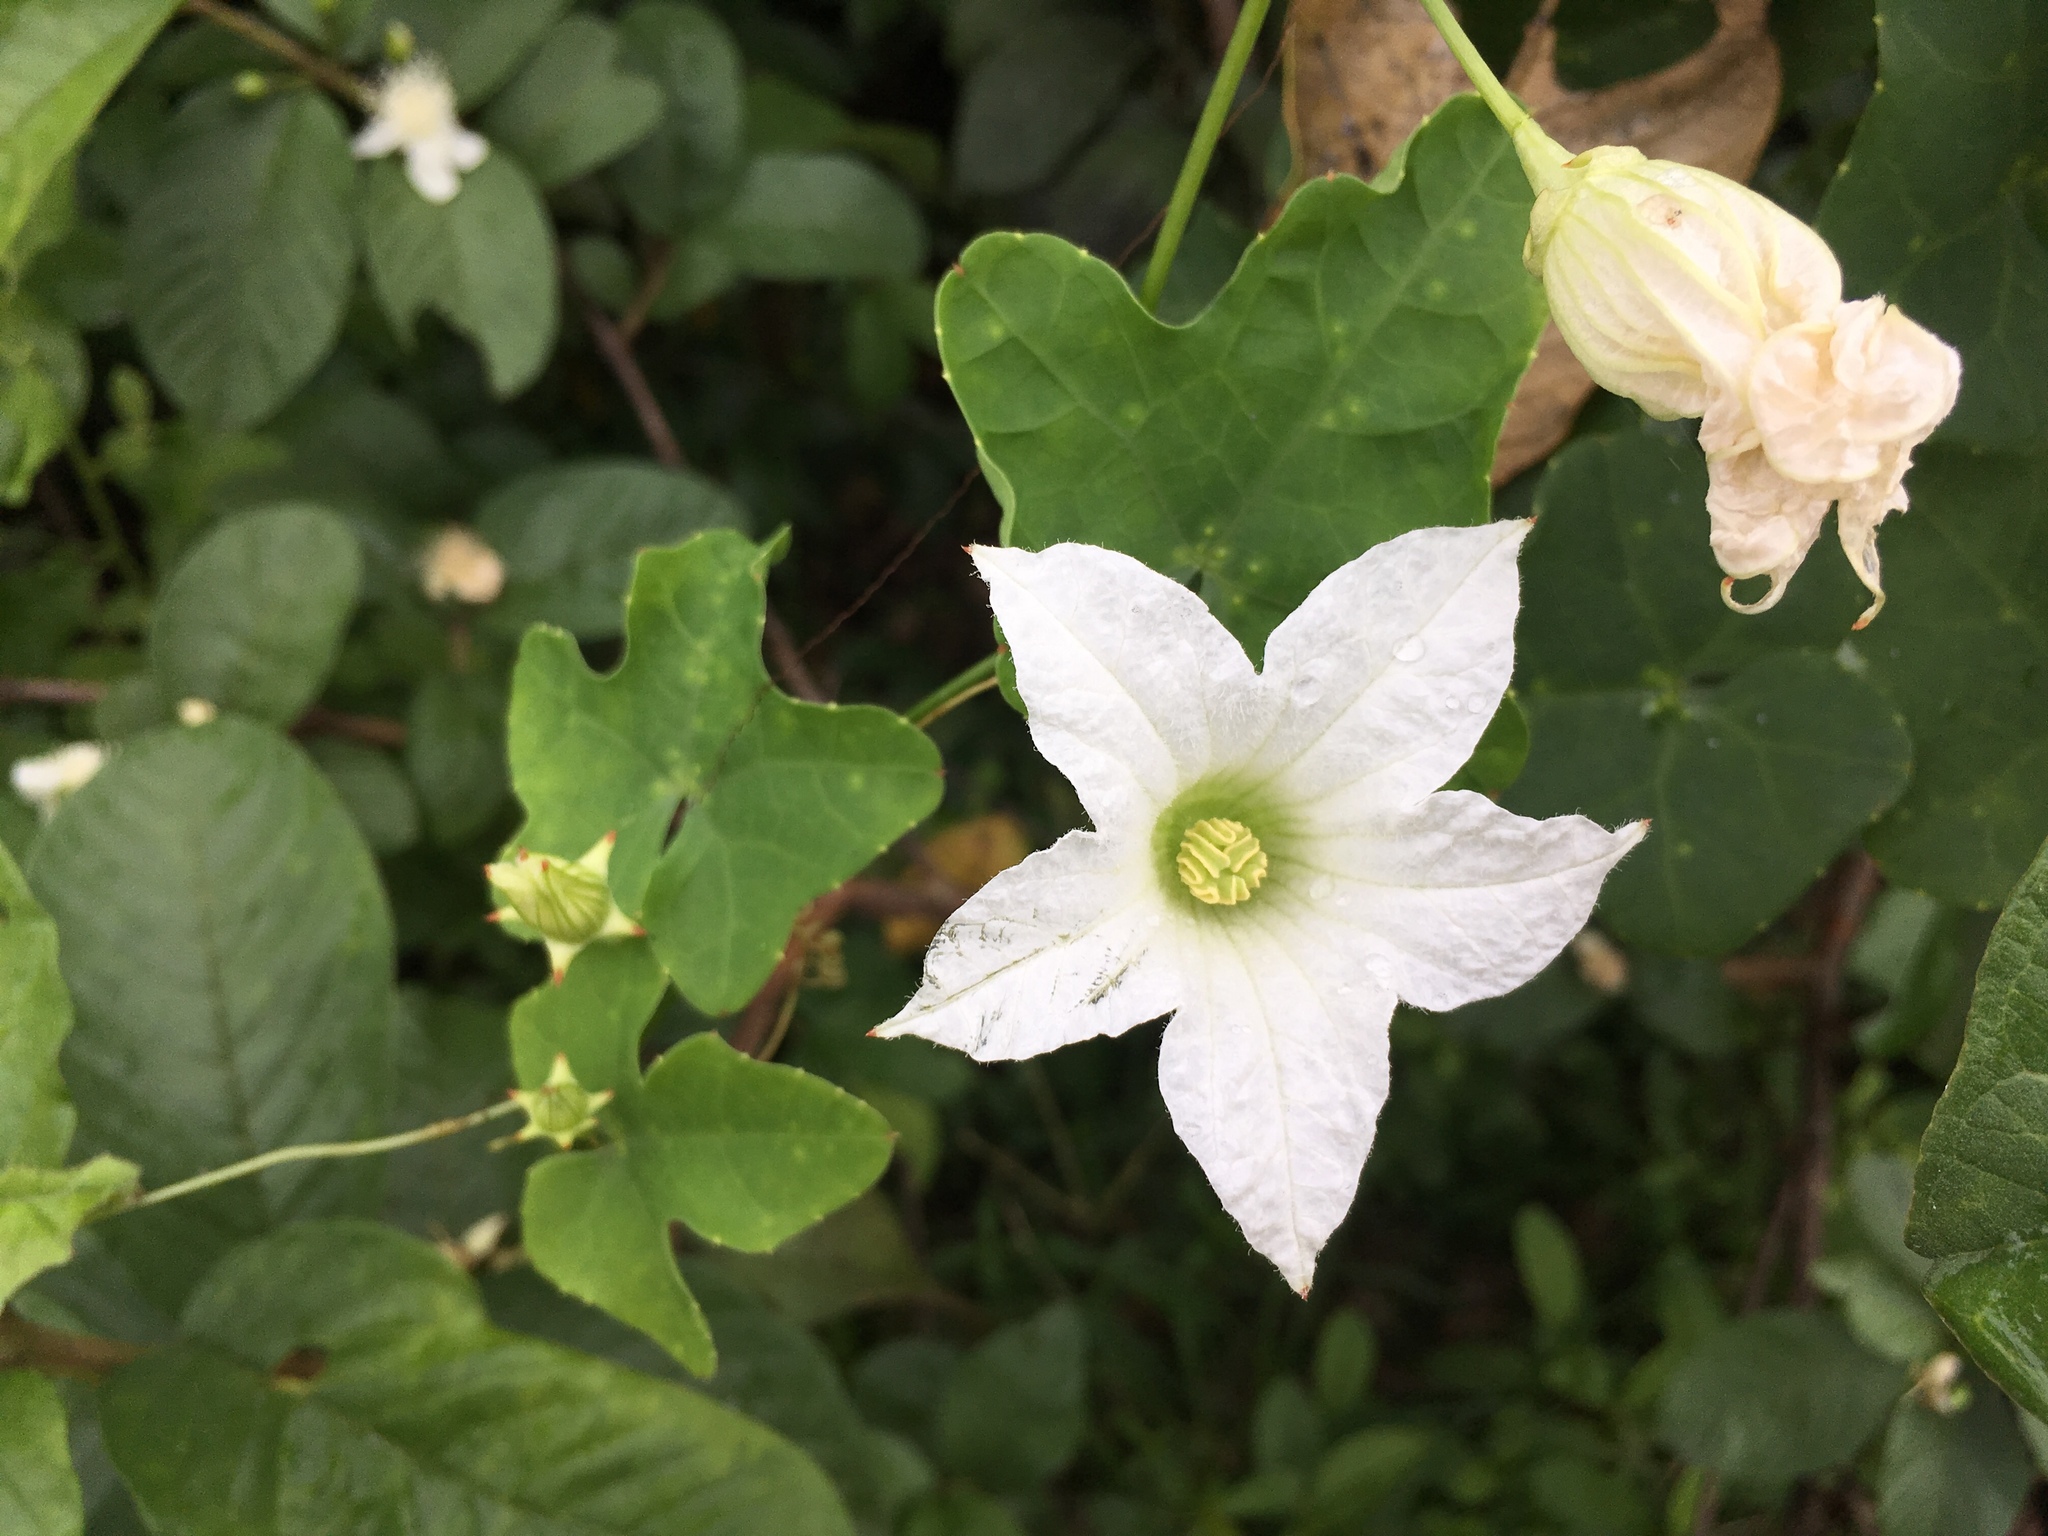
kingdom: Plantae
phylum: Tracheophyta
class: Magnoliopsida
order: Cucurbitales
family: Cucurbitaceae
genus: Coccinia
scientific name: Coccinia grandis
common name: Ivy gourd
